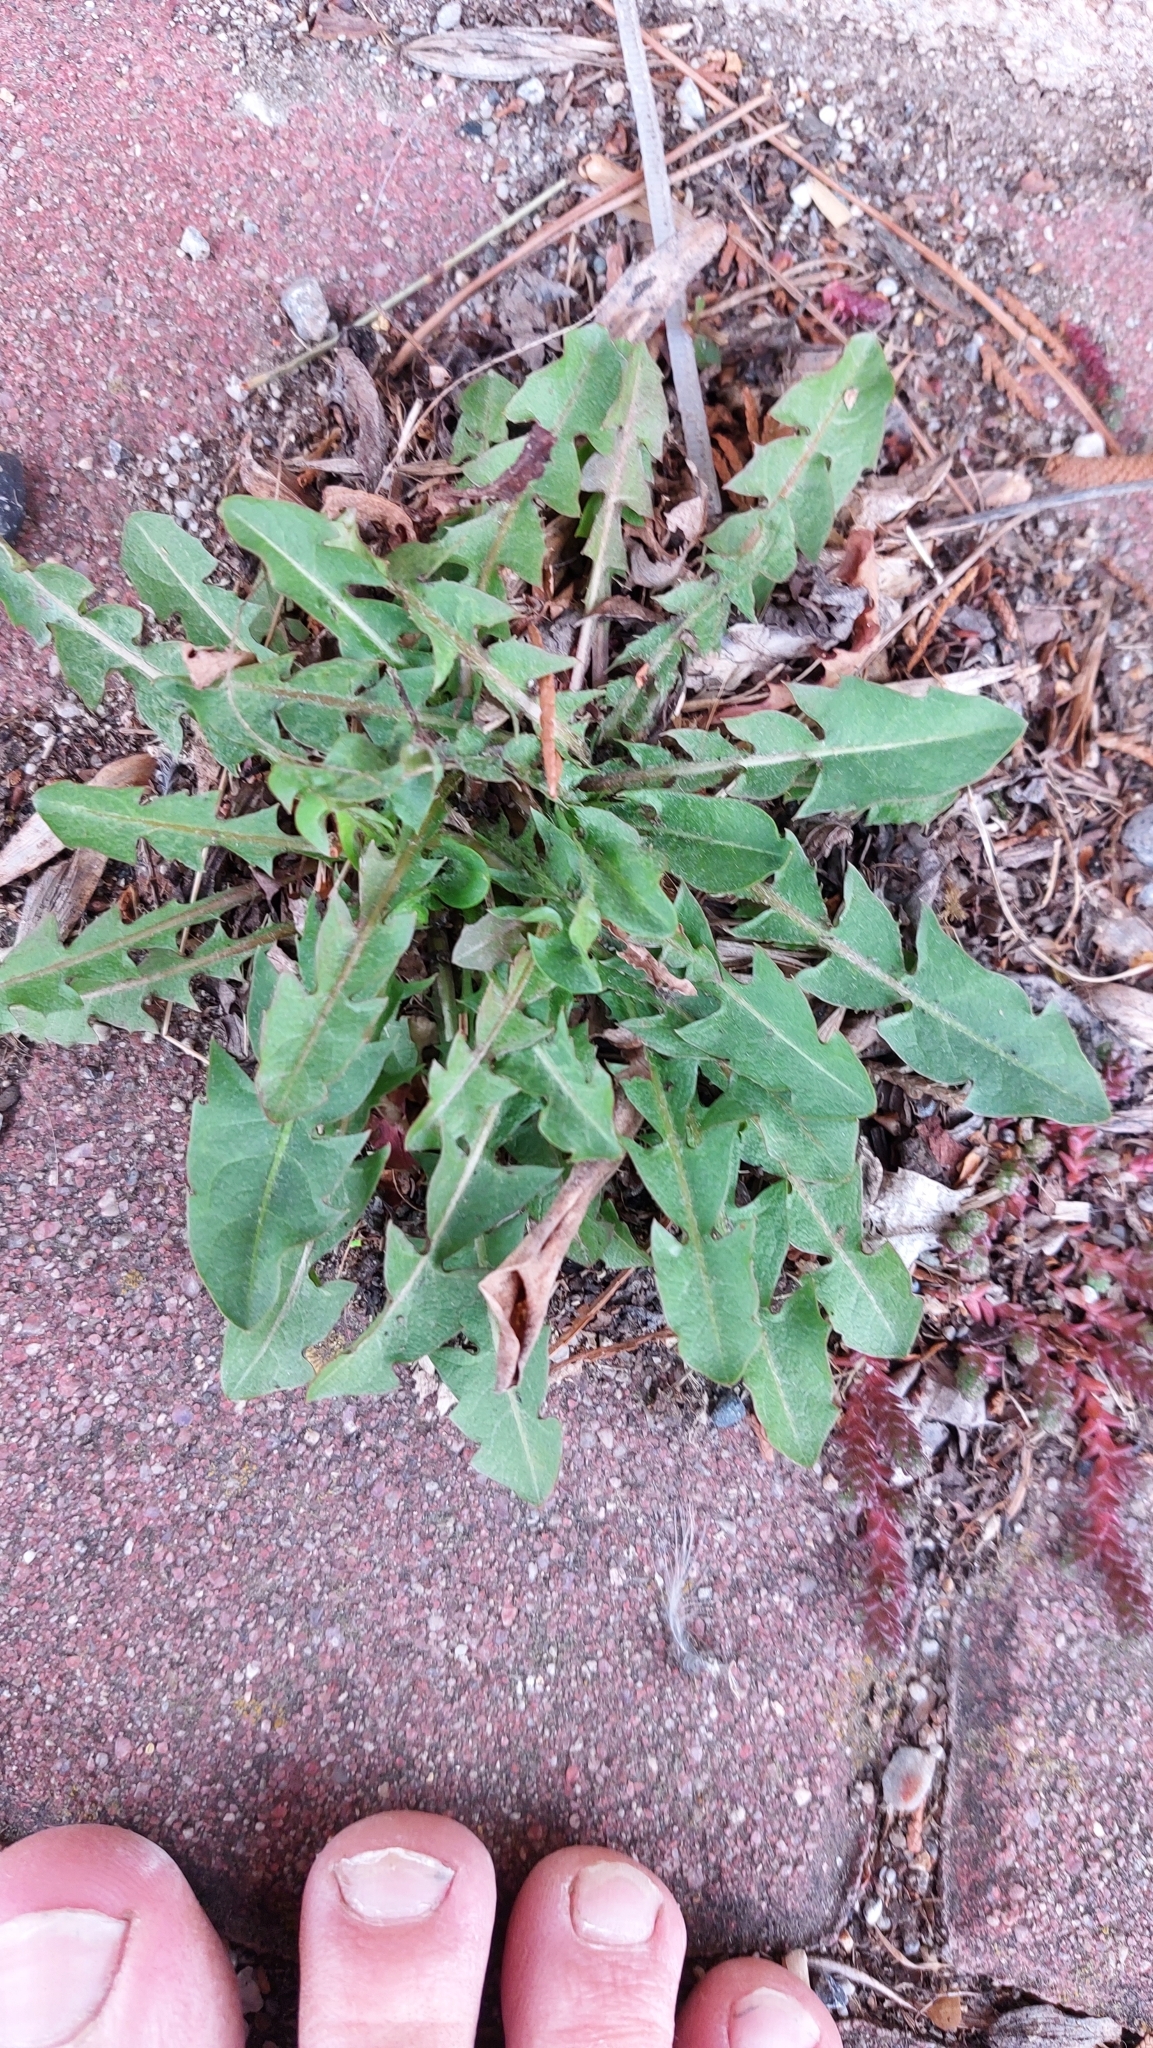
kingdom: Plantae
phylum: Tracheophyta
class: Magnoliopsida
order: Asterales
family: Asteraceae
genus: Taraxacum
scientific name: Taraxacum
